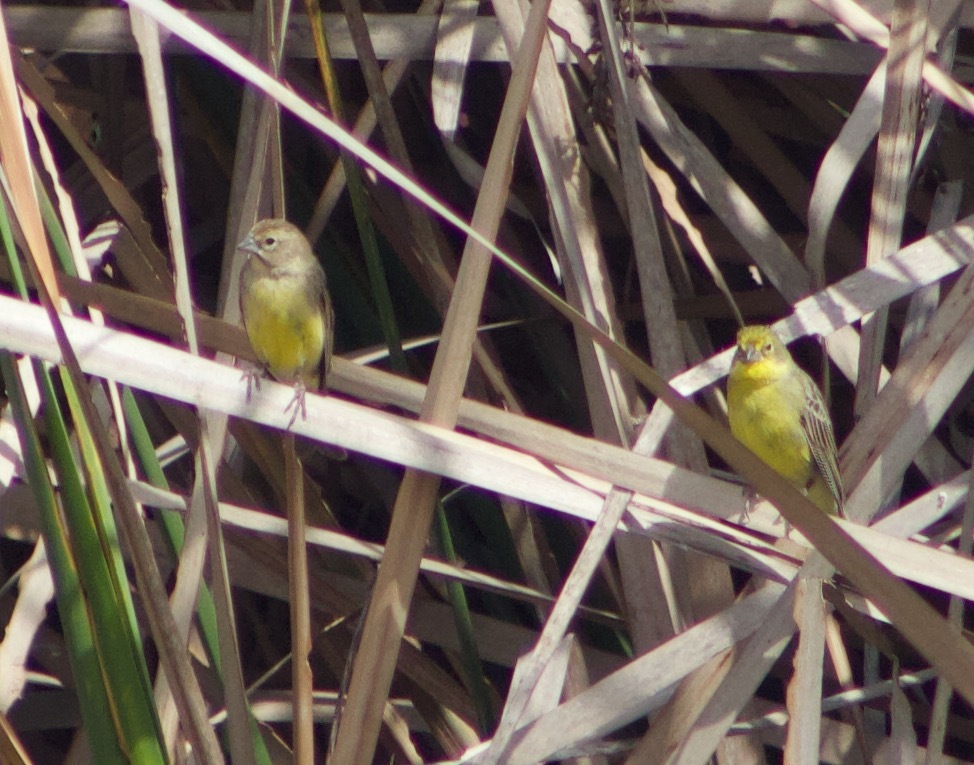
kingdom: Animalia
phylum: Chordata
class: Aves
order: Passeriformes
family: Thraupidae
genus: Sicalis
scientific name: Sicalis luteola
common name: Grassland yellow-finch
